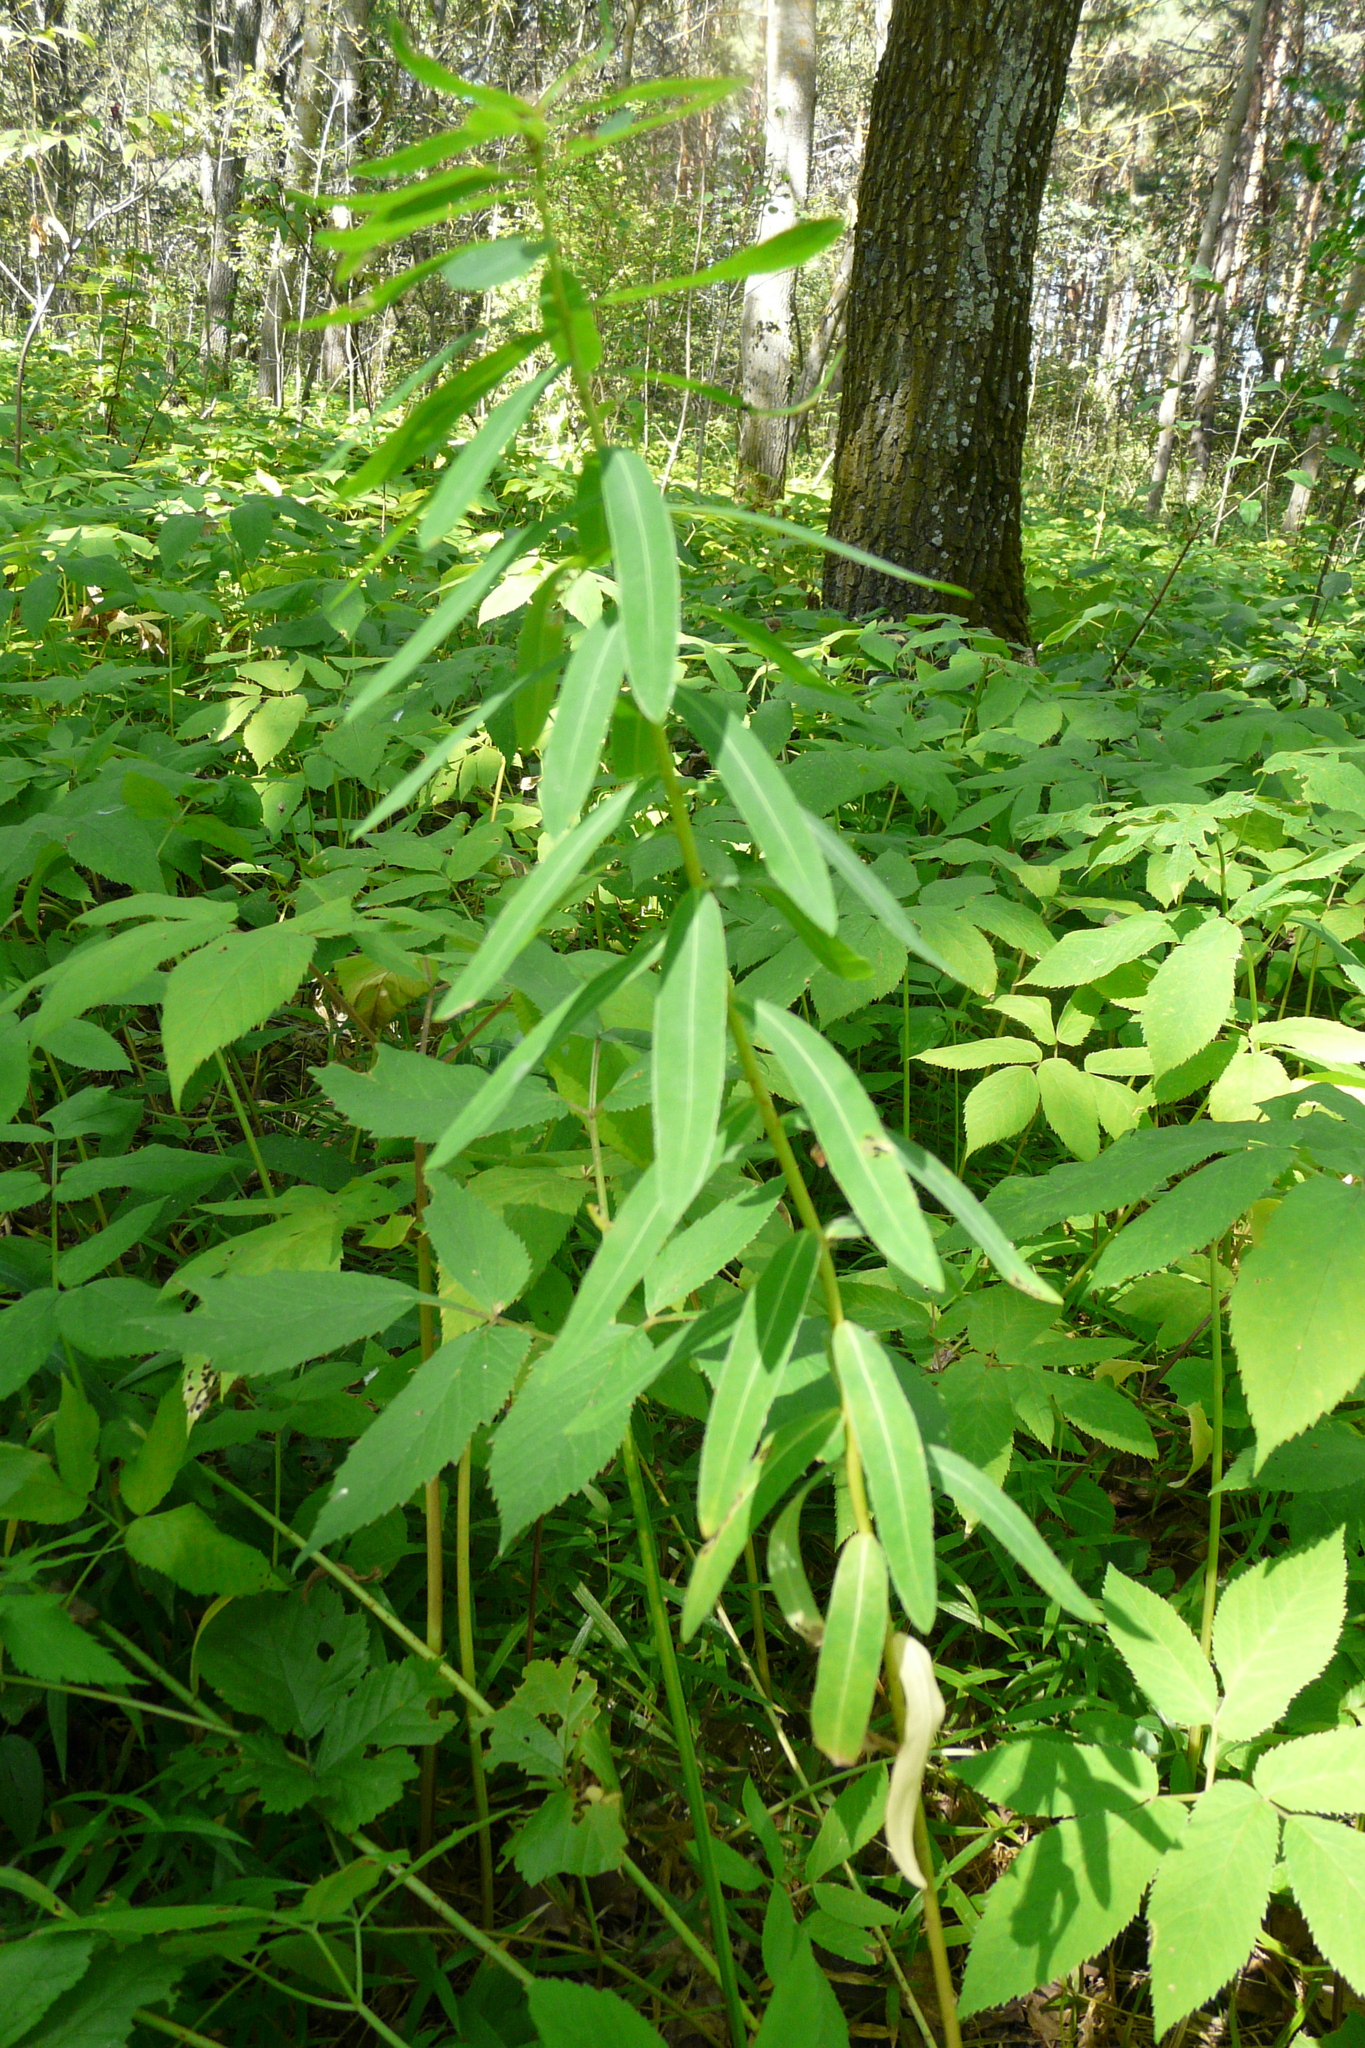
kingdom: Plantae
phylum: Tracheophyta
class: Magnoliopsida
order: Malpighiales
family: Euphorbiaceae
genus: Euphorbia
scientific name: Euphorbia semivillosa
